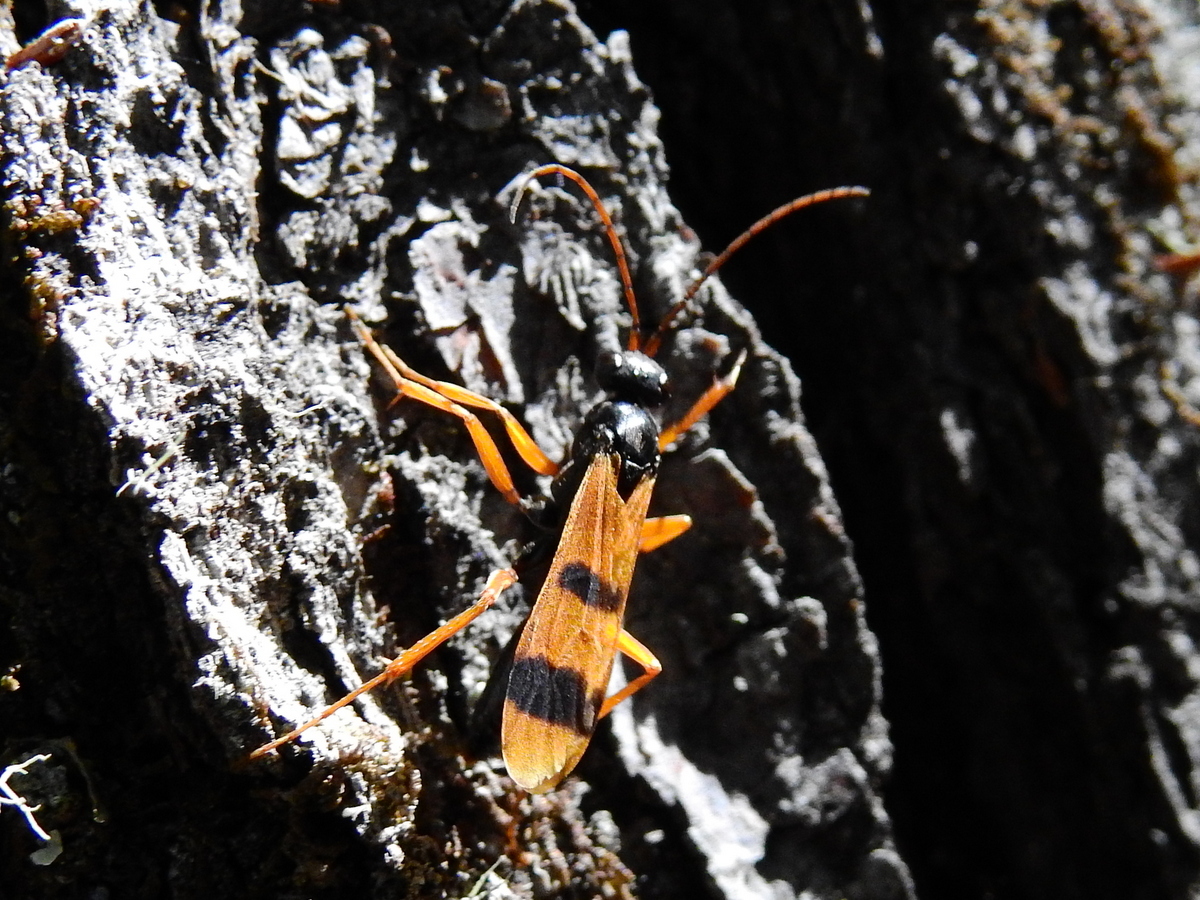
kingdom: Animalia
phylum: Arthropoda
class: Insecta
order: Hymenoptera
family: Pompilidae
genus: Sphictostethus
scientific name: Sphictostethus isodontus
